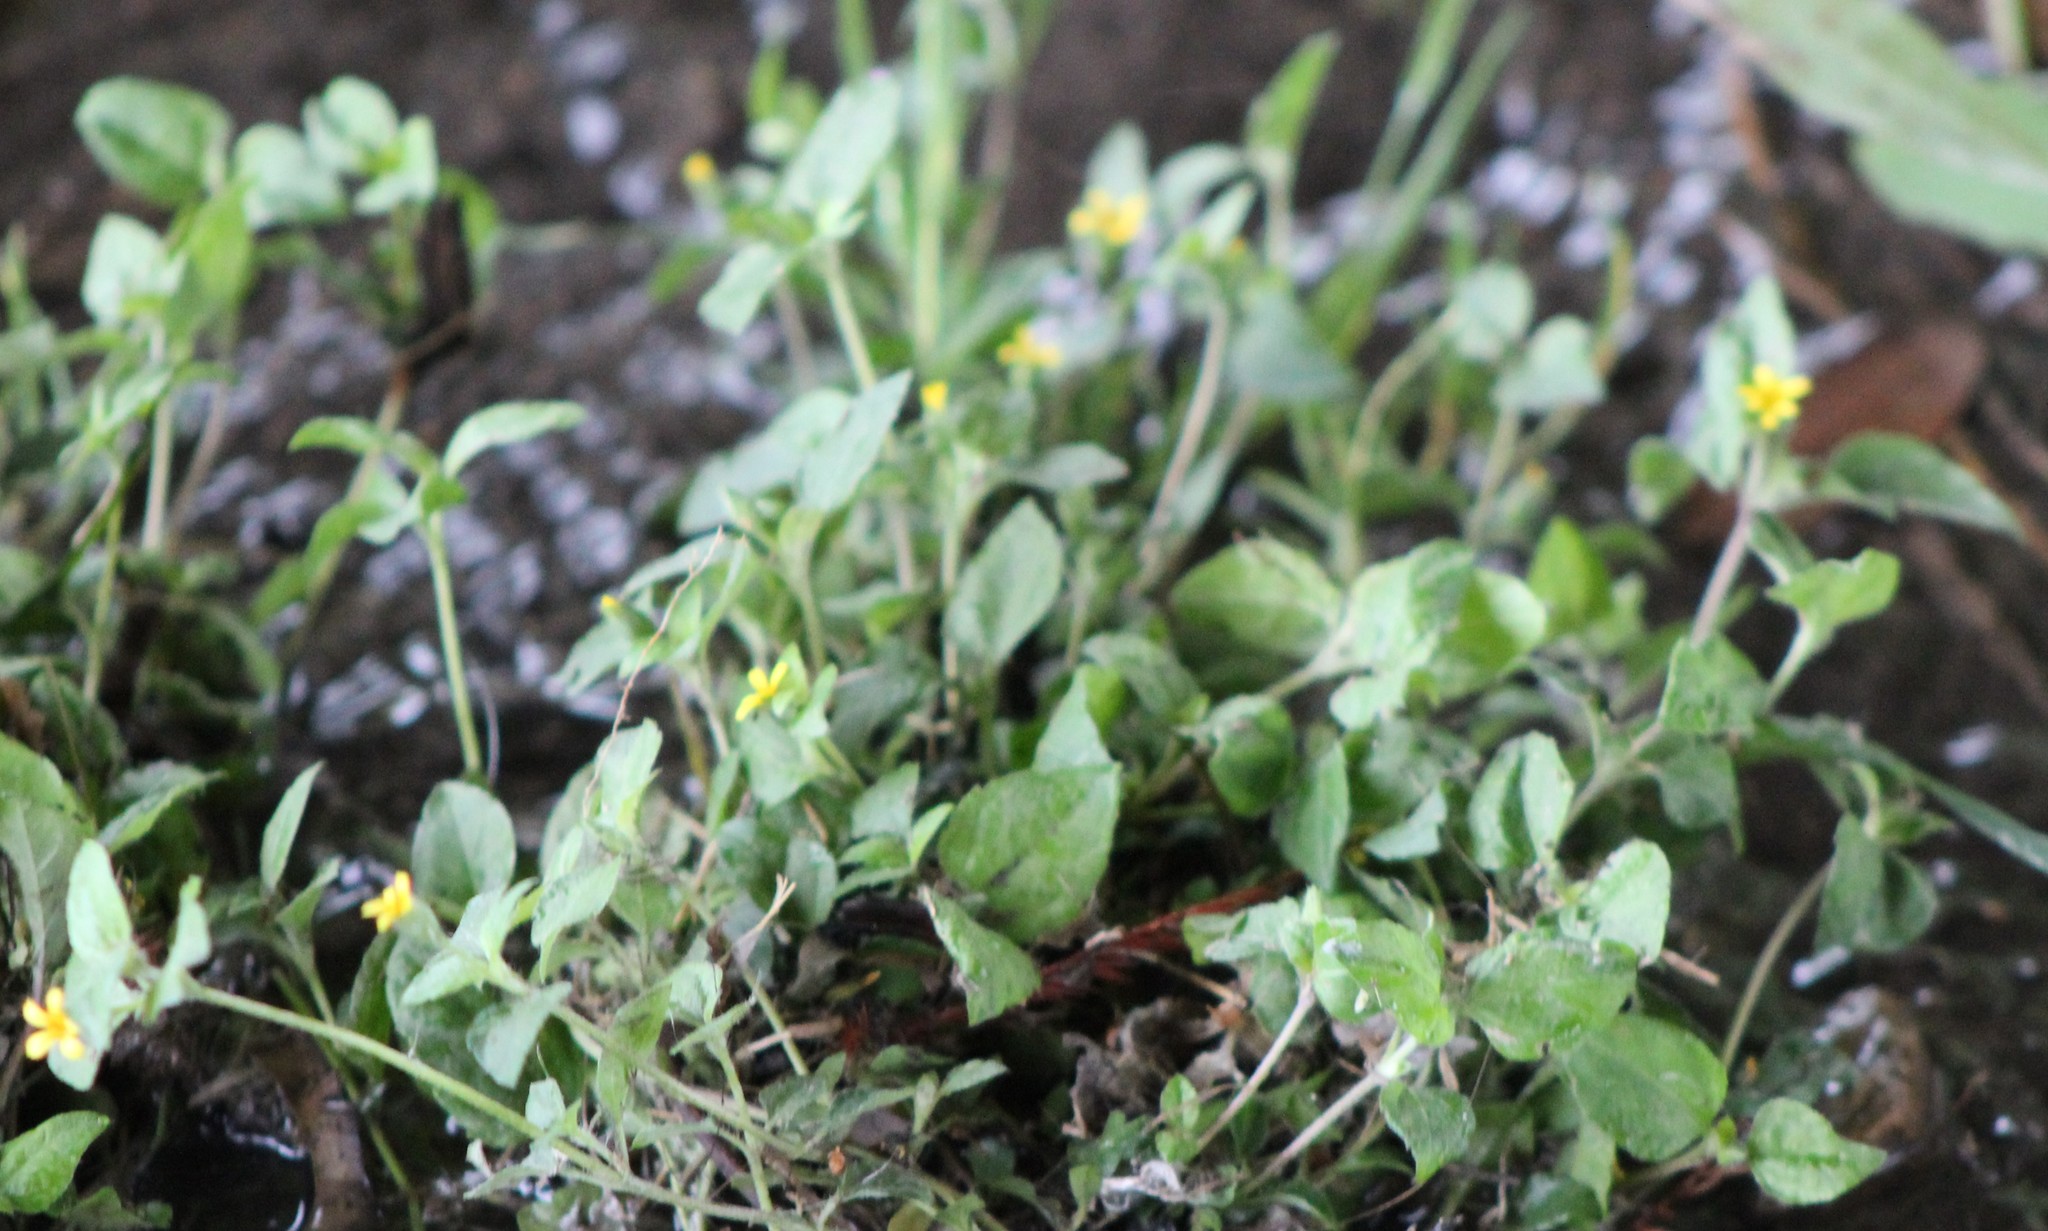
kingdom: Plantae
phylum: Tracheophyta
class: Magnoliopsida
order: Asterales
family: Asteraceae
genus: Calyptocarpus
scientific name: Calyptocarpus vialis
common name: Straggler daisy
